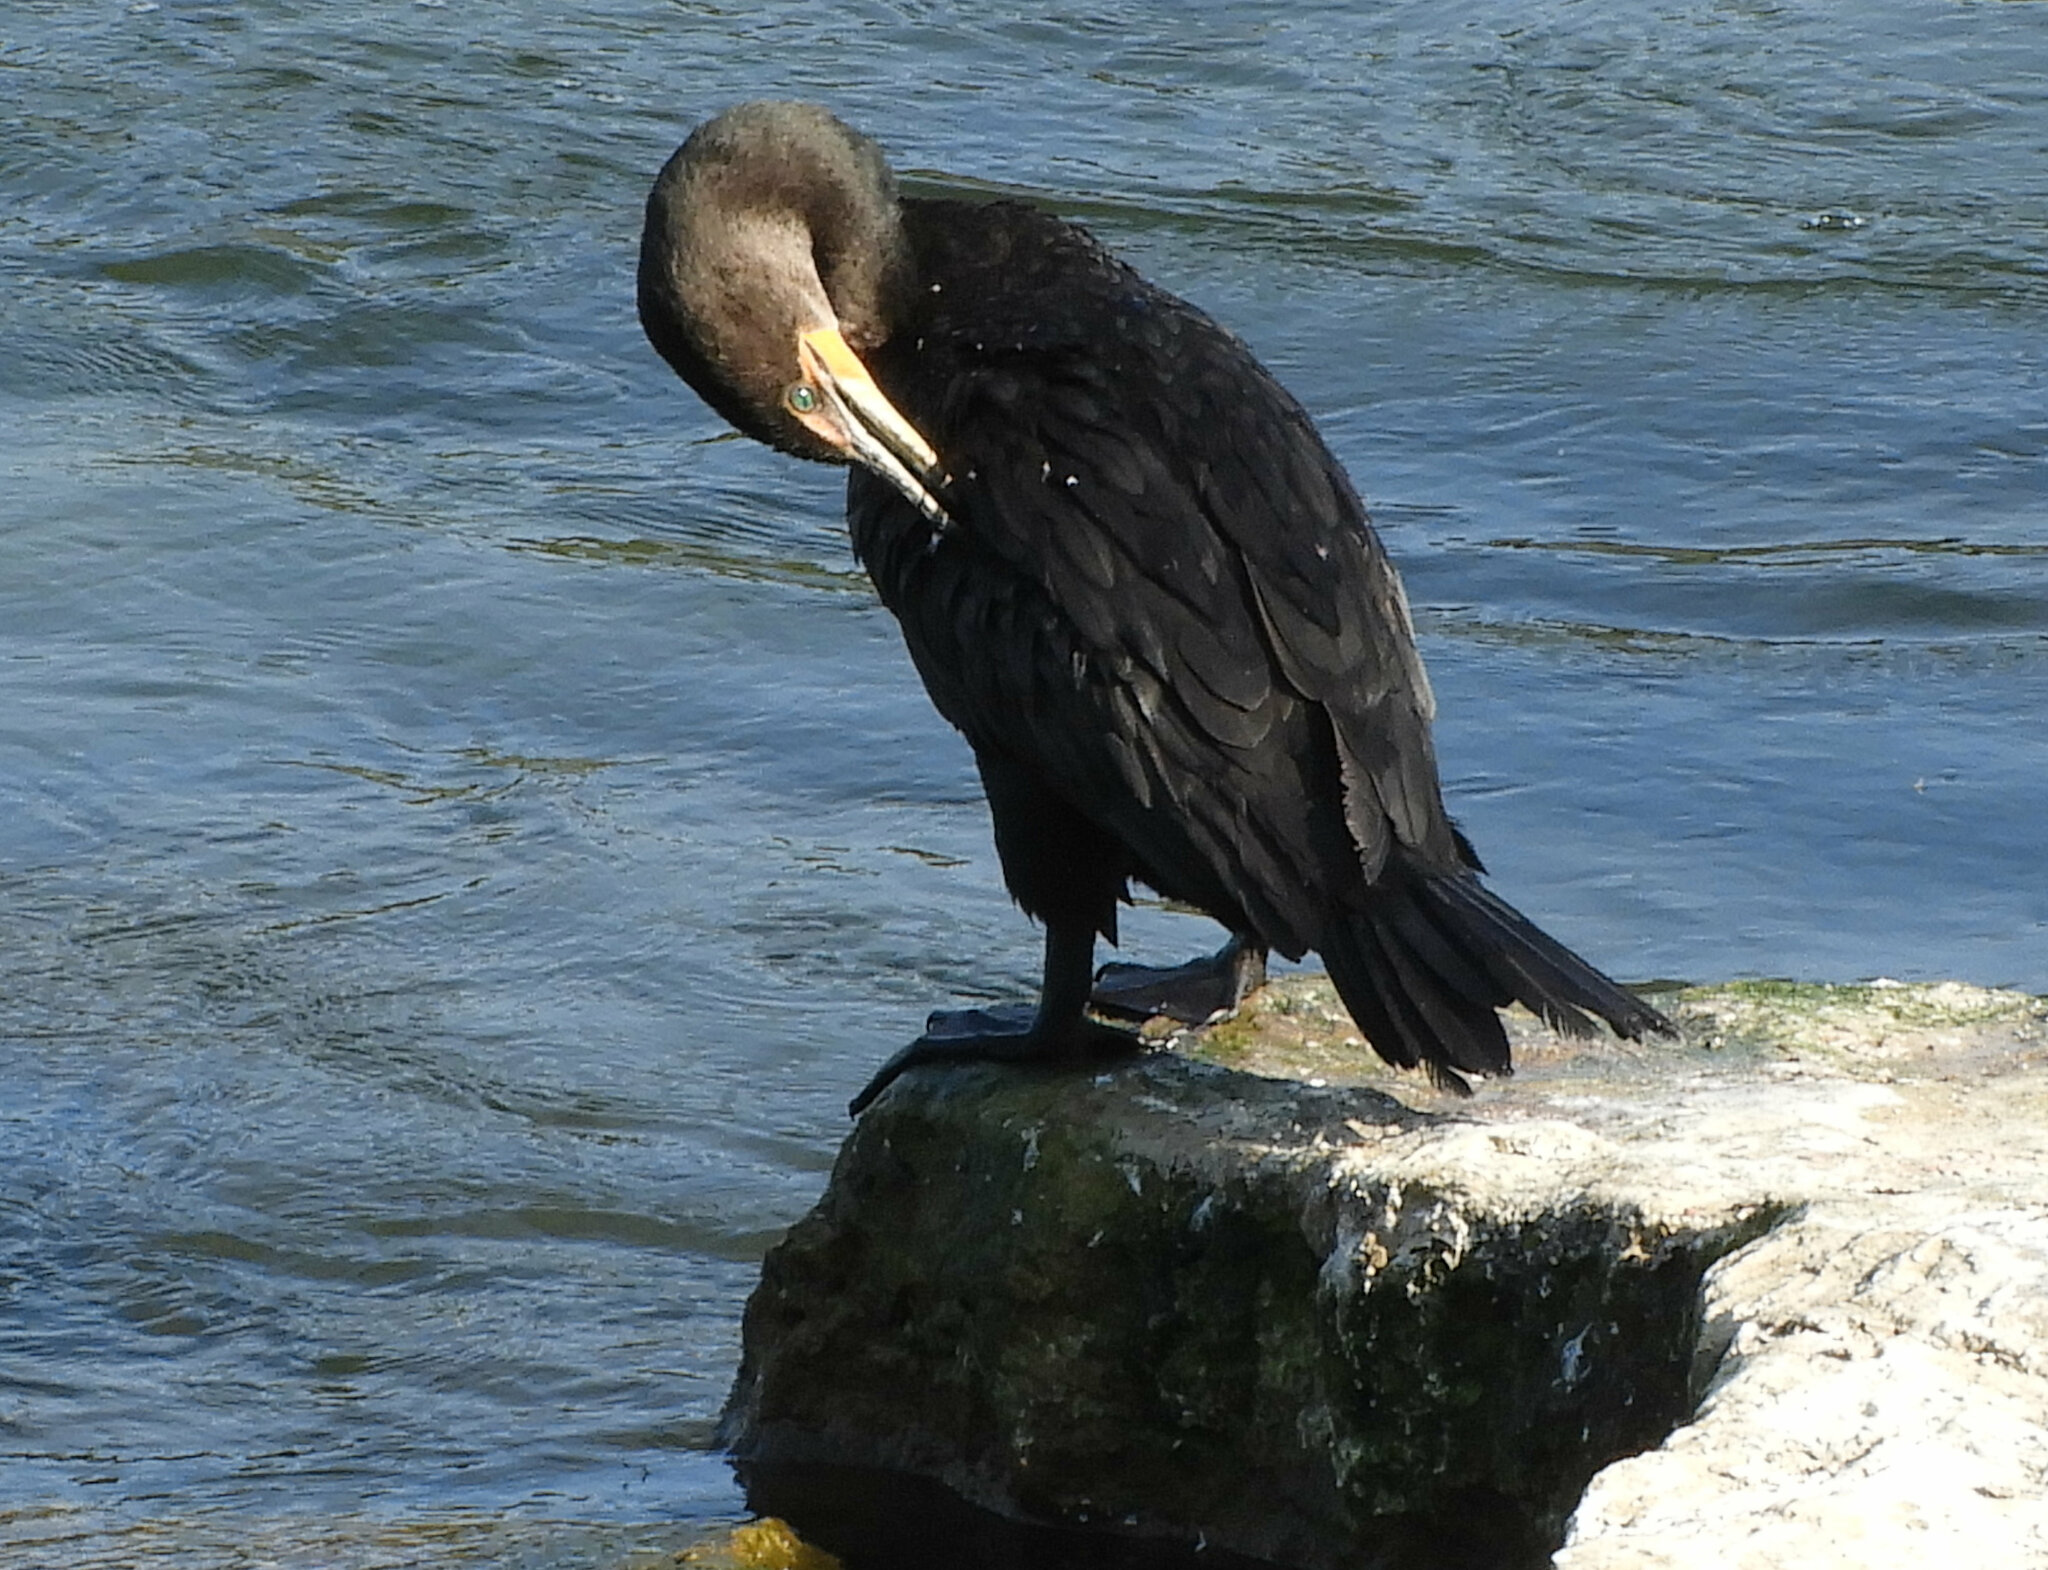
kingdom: Animalia
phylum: Chordata
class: Aves
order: Suliformes
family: Phalacrocoracidae
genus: Phalacrocorax
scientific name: Phalacrocorax auritus
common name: Double-crested cormorant
